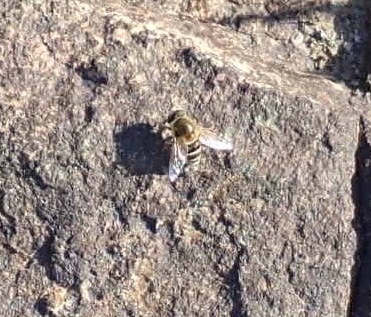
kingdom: Animalia
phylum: Arthropoda
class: Insecta
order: Diptera
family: Syrphidae
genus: Eristalis
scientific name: Eristalis stipator
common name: Yellow-shouldered drone fly
